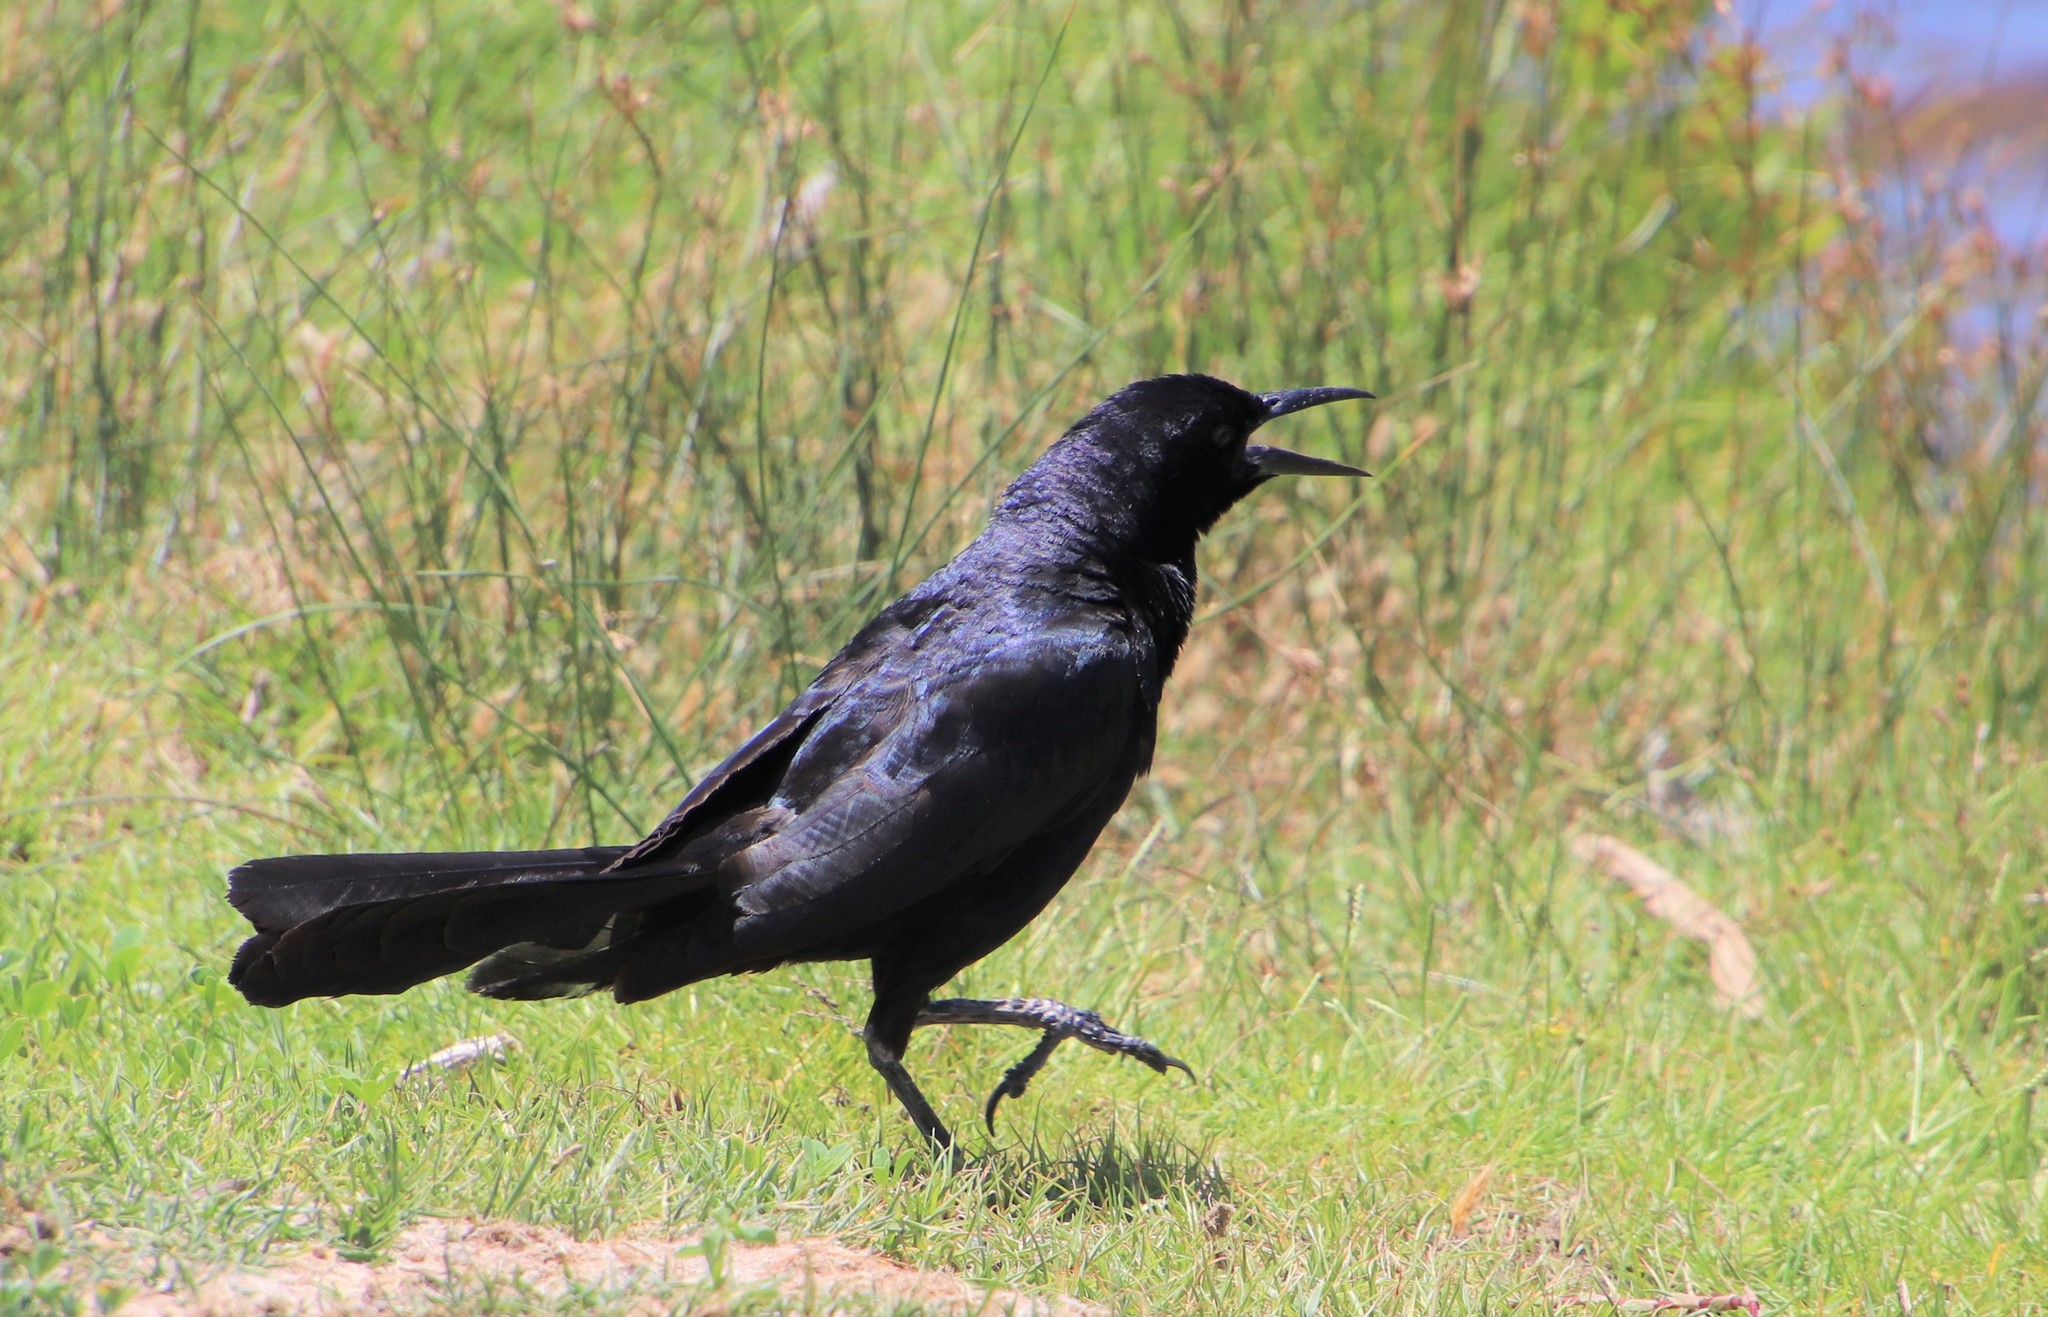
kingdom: Animalia
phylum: Chordata
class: Aves
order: Passeriformes
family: Icteridae
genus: Quiscalus
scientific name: Quiscalus mexicanus
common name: Great-tailed grackle
